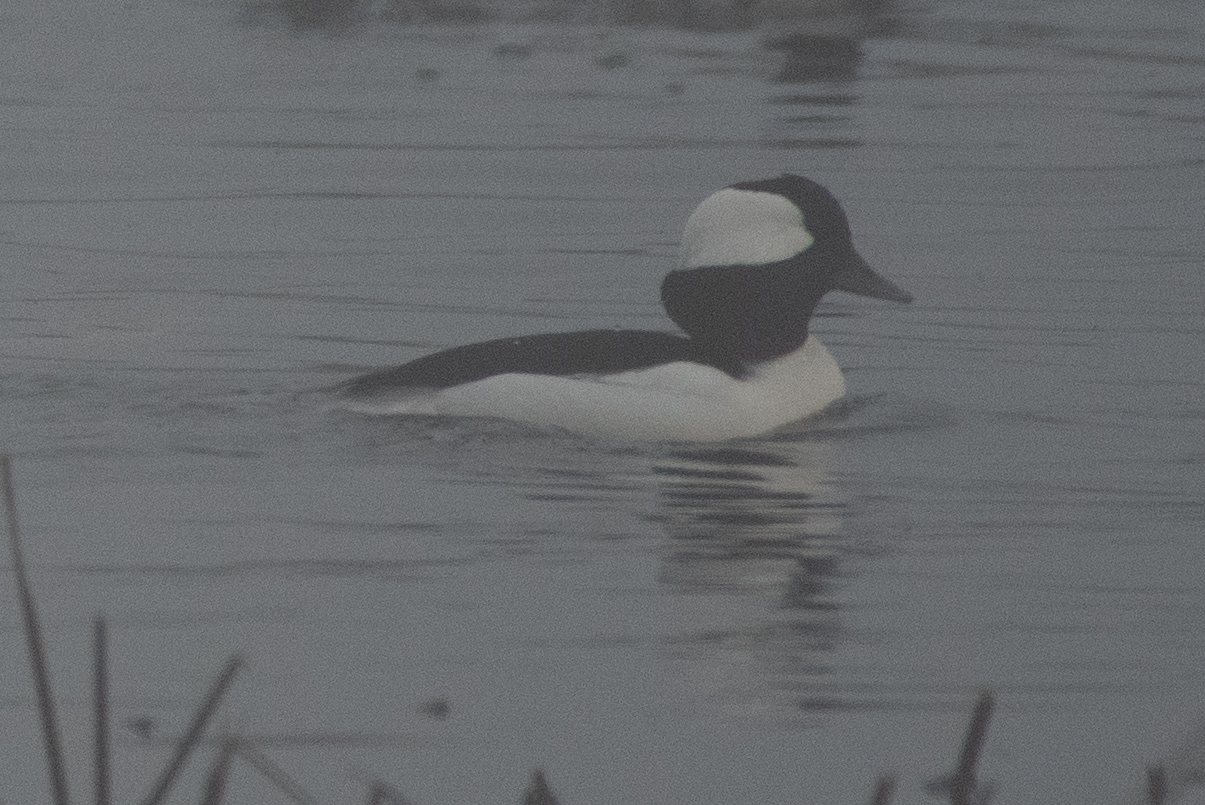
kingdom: Animalia
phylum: Chordata
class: Aves
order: Anseriformes
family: Anatidae
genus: Bucephala
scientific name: Bucephala albeola
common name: Bufflehead
